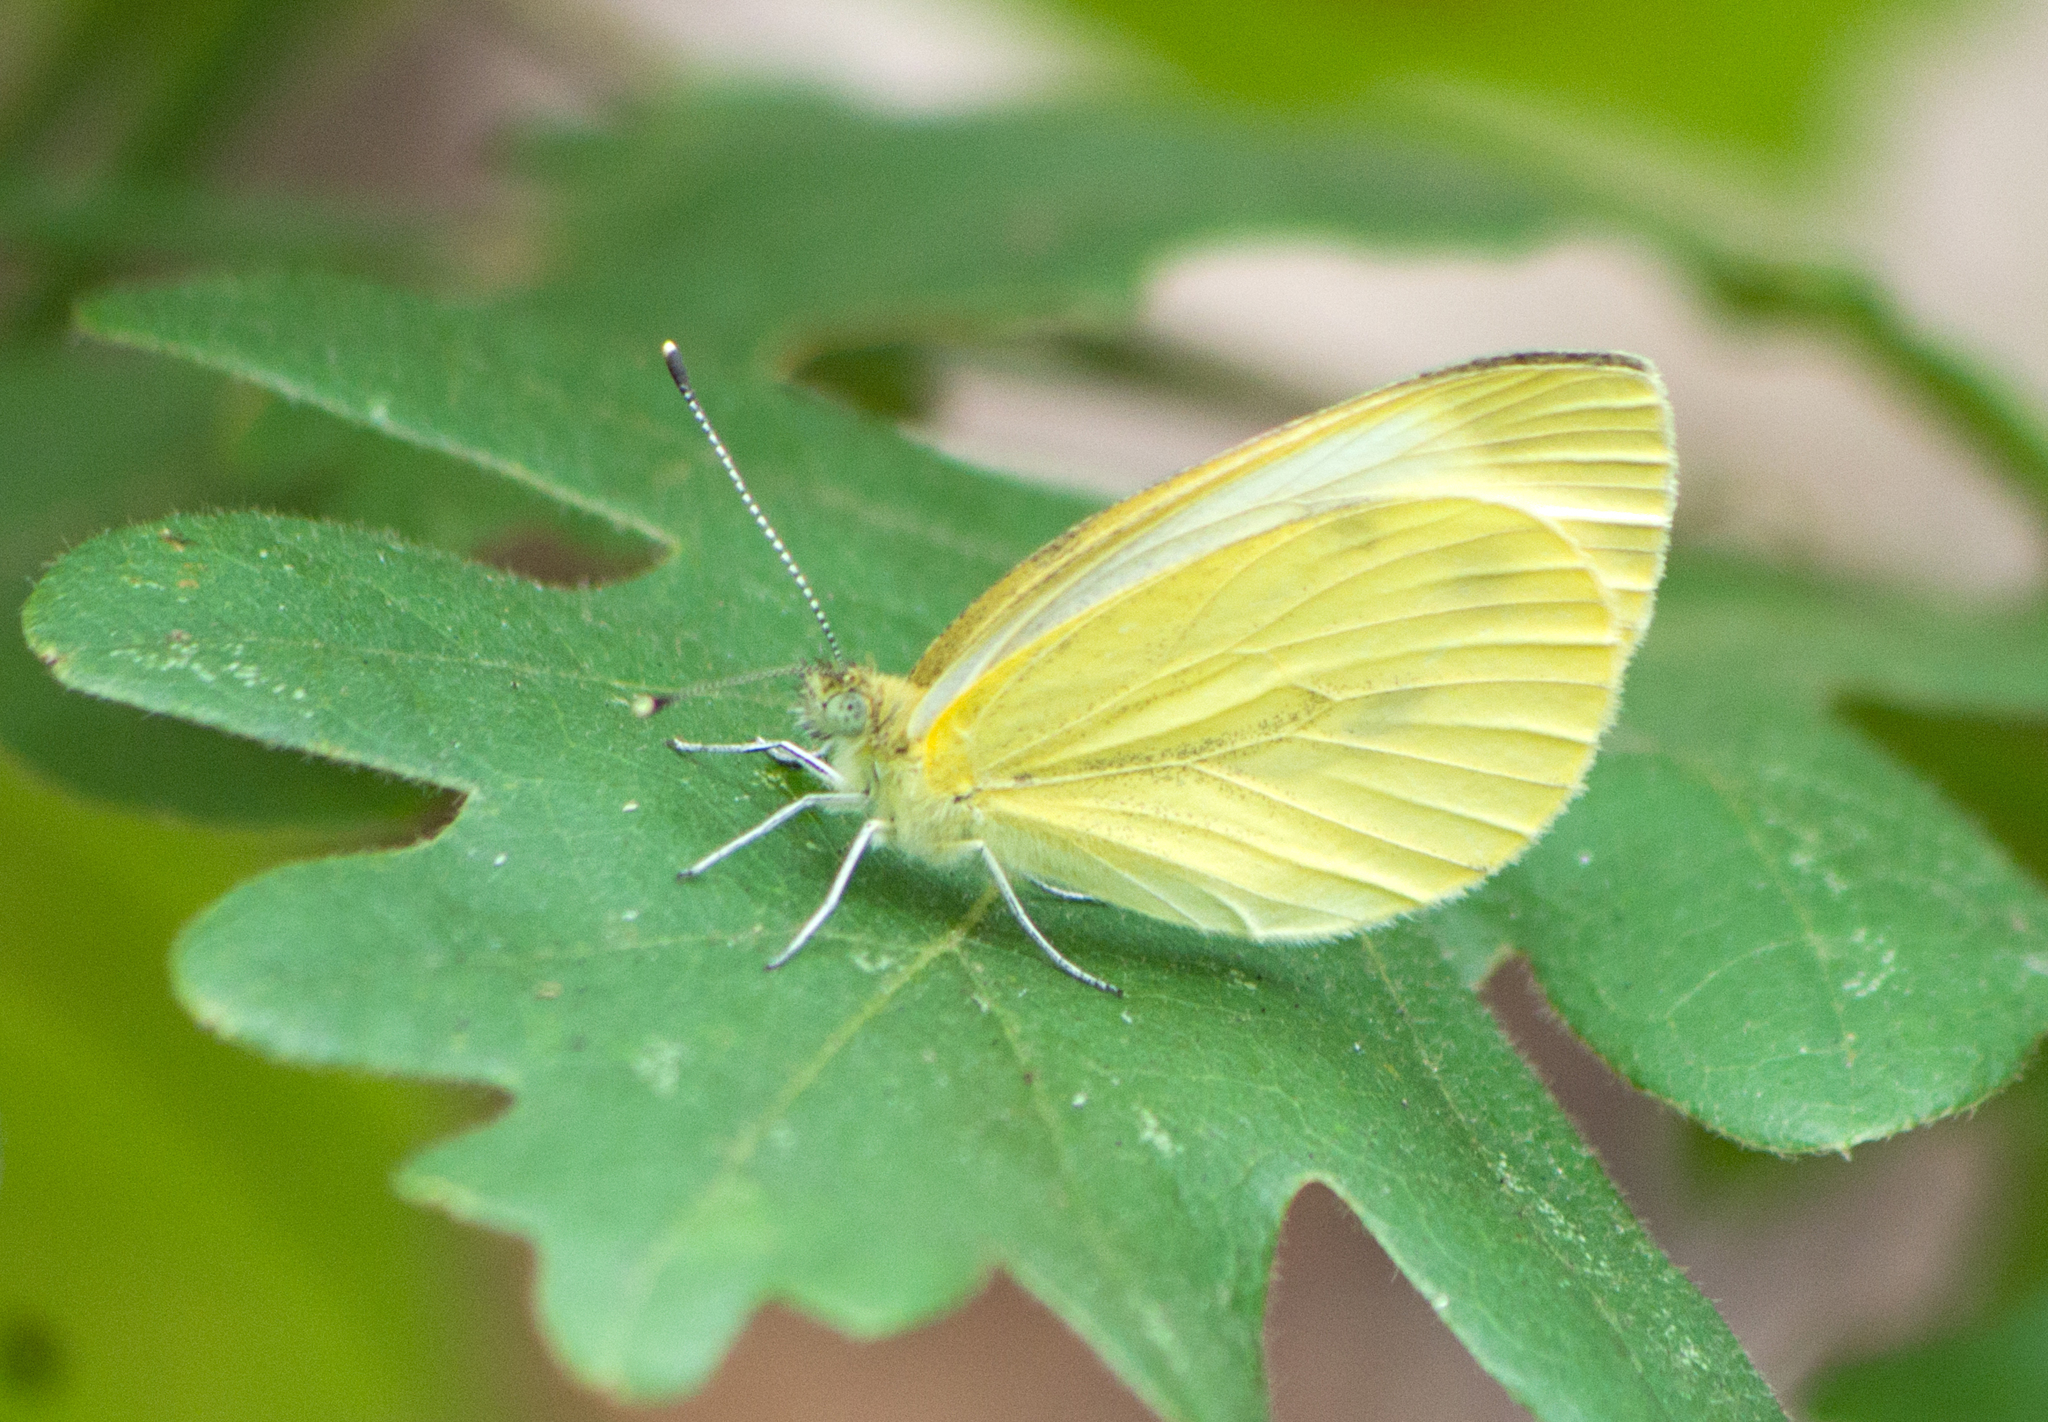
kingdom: Animalia
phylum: Arthropoda
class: Insecta
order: Lepidoptera
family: Pieridae
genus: Pieris
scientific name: Pieris napi
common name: Green-veined white
